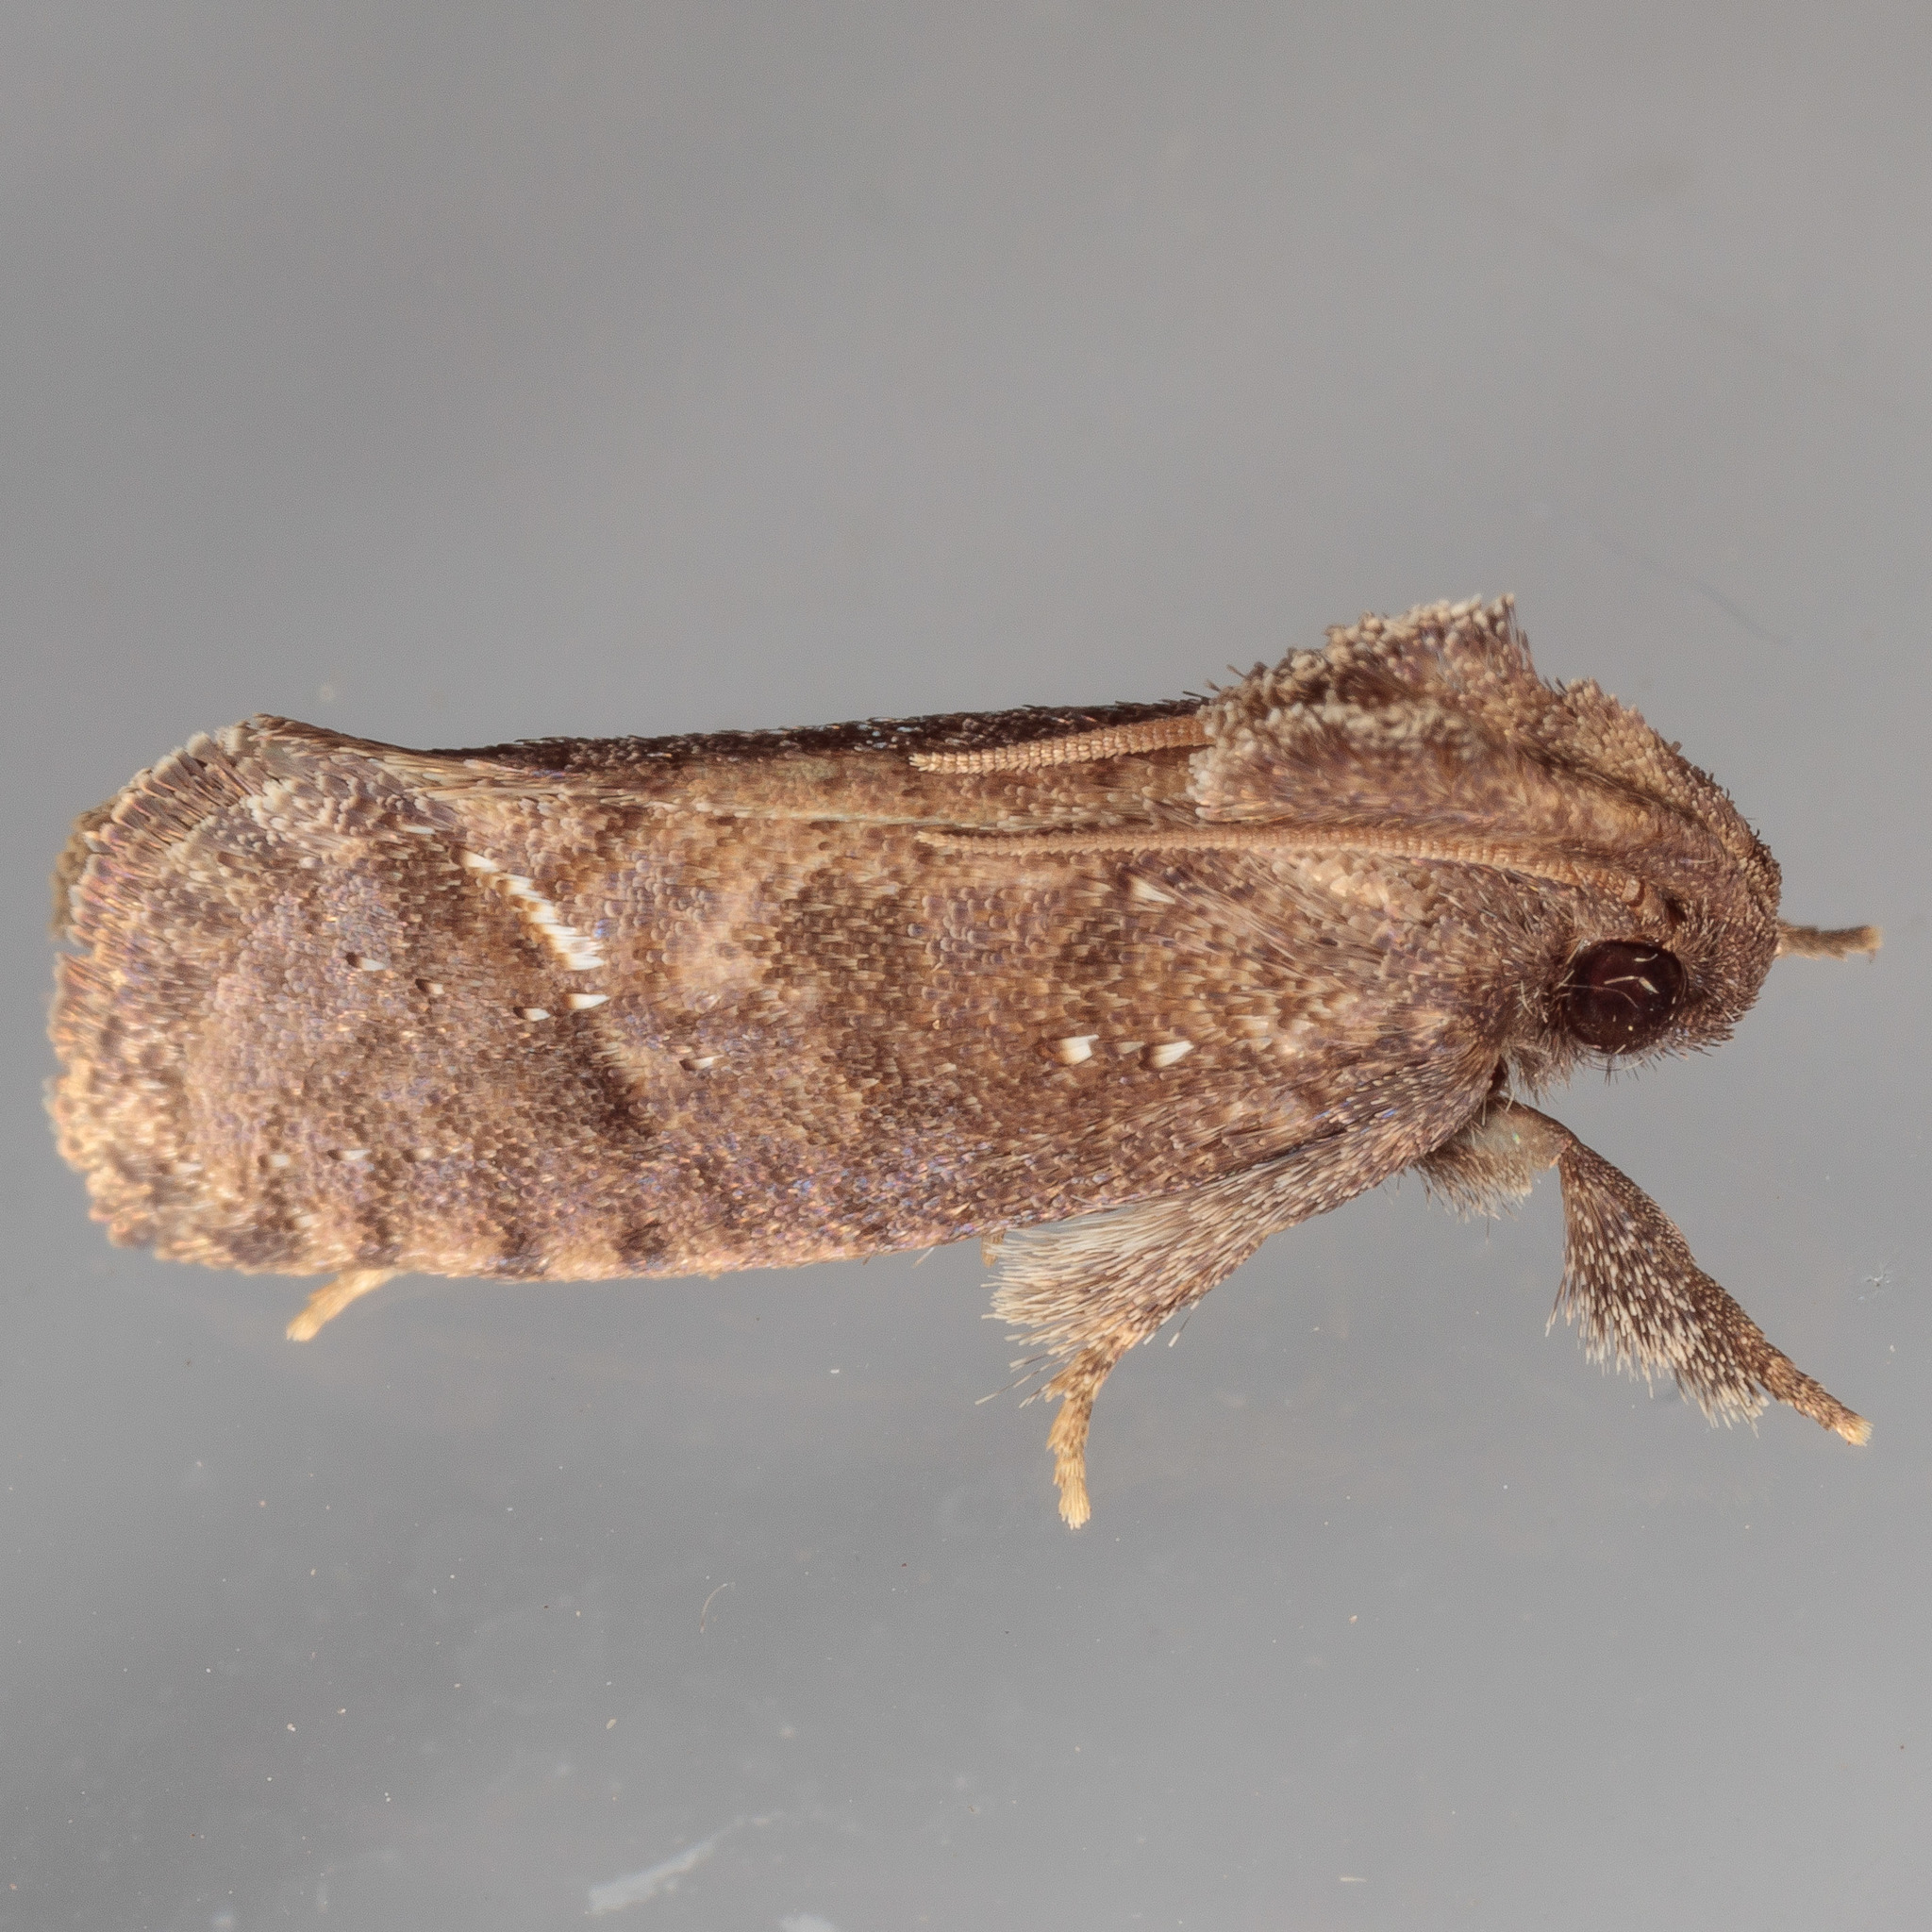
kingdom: Animalia
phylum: Arthropoda
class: Insecta
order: Lepidoptera
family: Tineidae
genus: Acrolophus
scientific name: Acrolophus texanella
